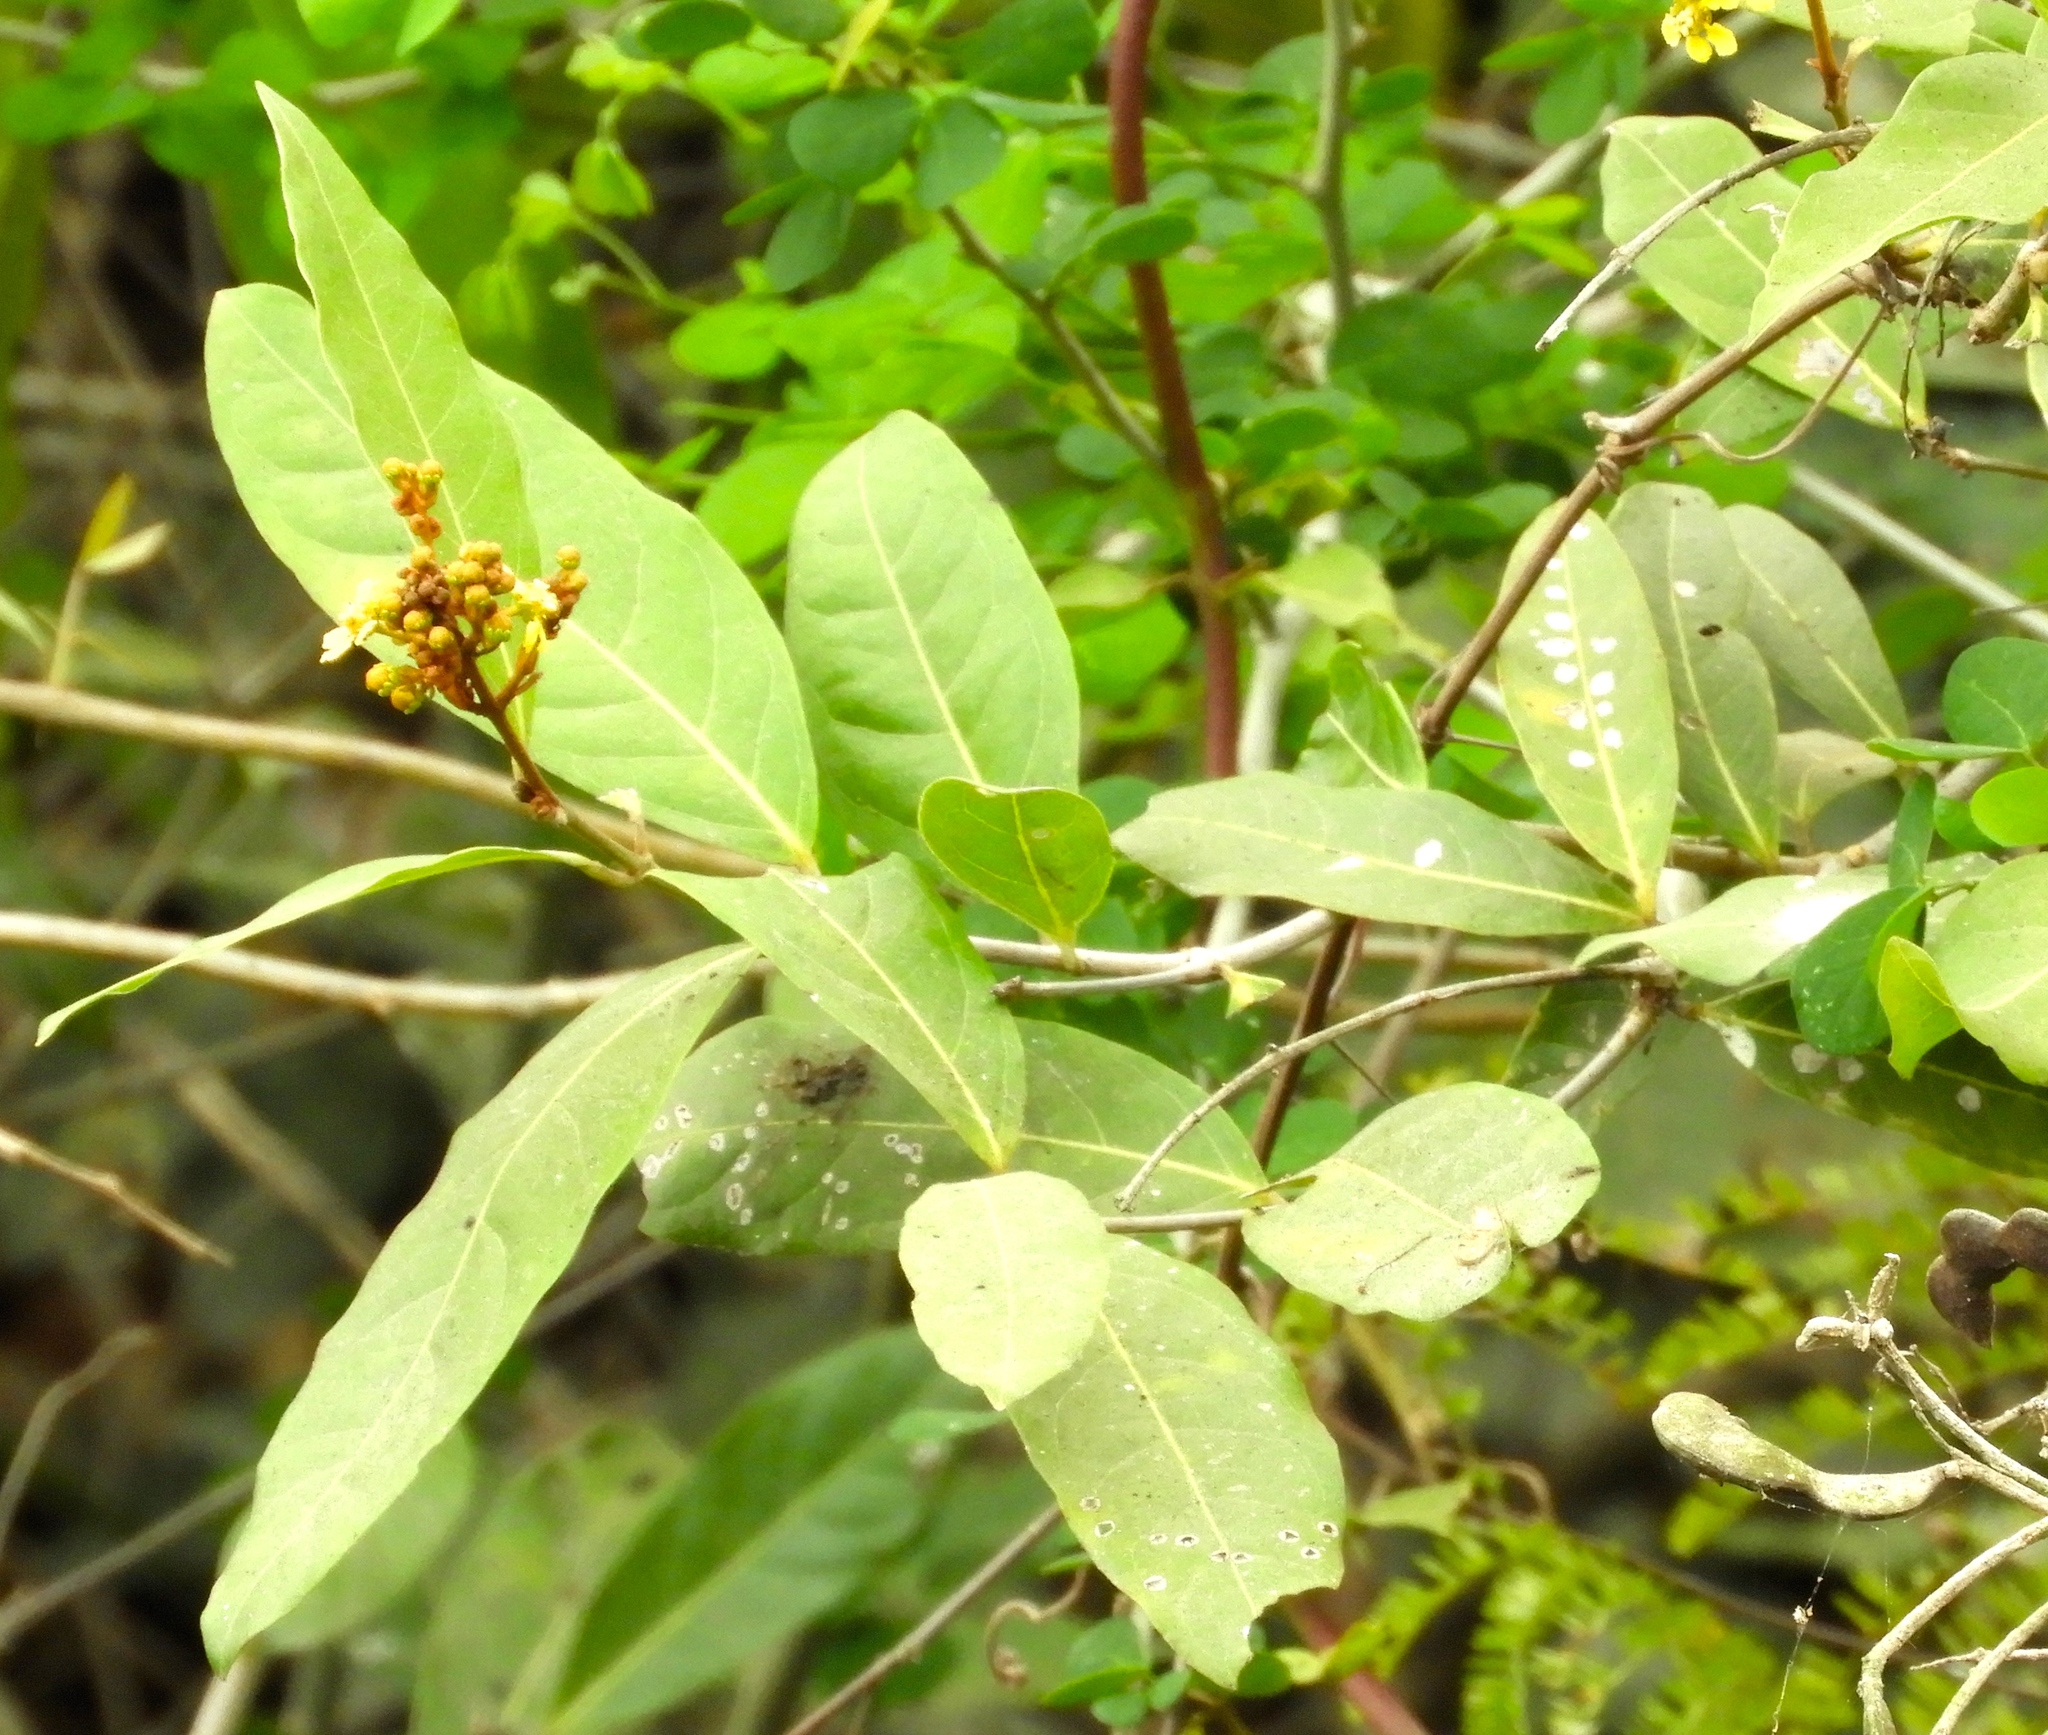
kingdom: Plantae
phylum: Tracheophyta
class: Magnoliopsida
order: Malpighiales
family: Malpighiaceae
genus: Heteropterys
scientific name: Heteropterys laurifolia
